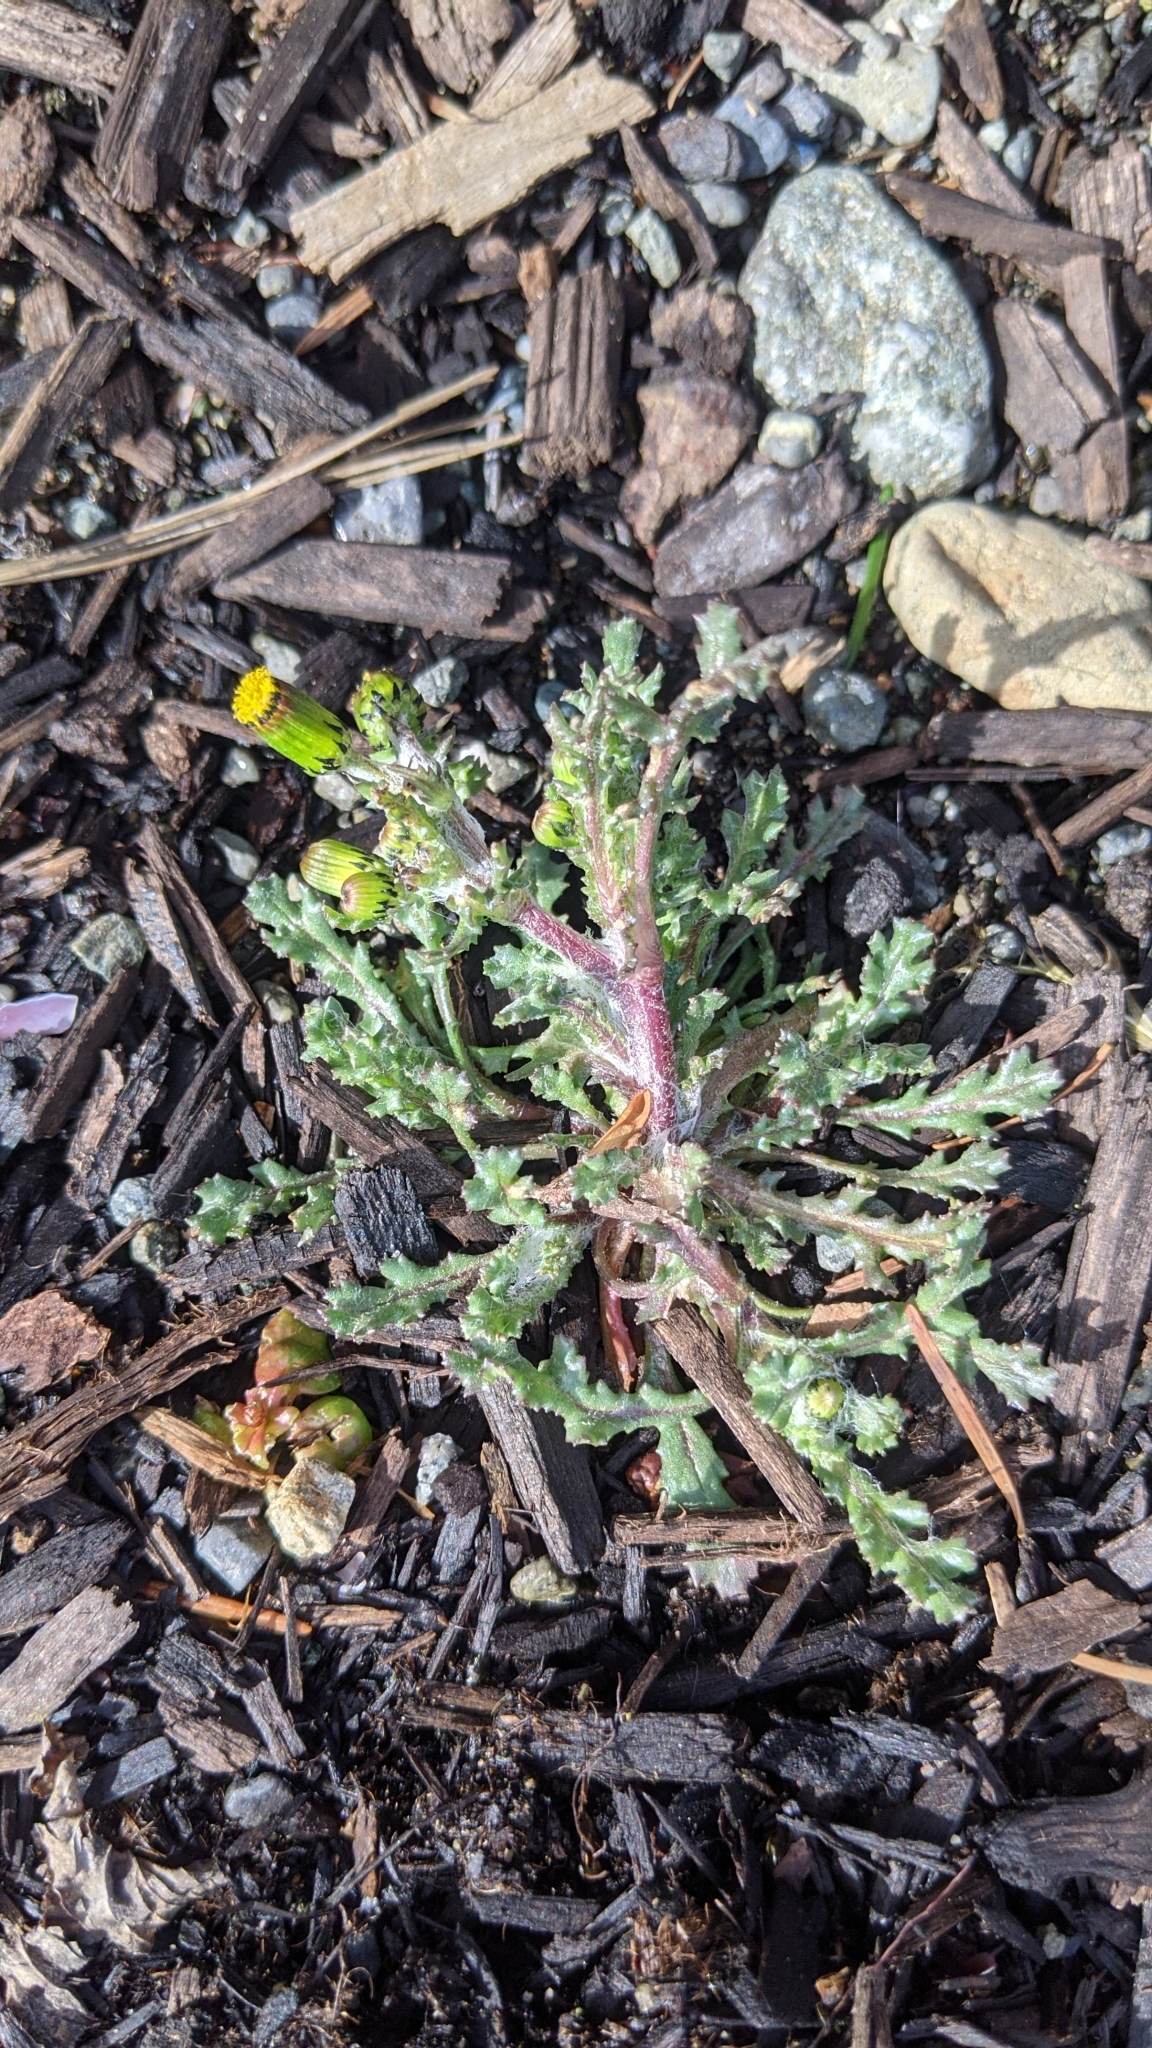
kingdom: Plantae
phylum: Tracheophyta
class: Magnoliopsida
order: Asterales
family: Asteraceae
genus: Senecio
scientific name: Senecio vulgaris
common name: Old-man-in-the-spring
